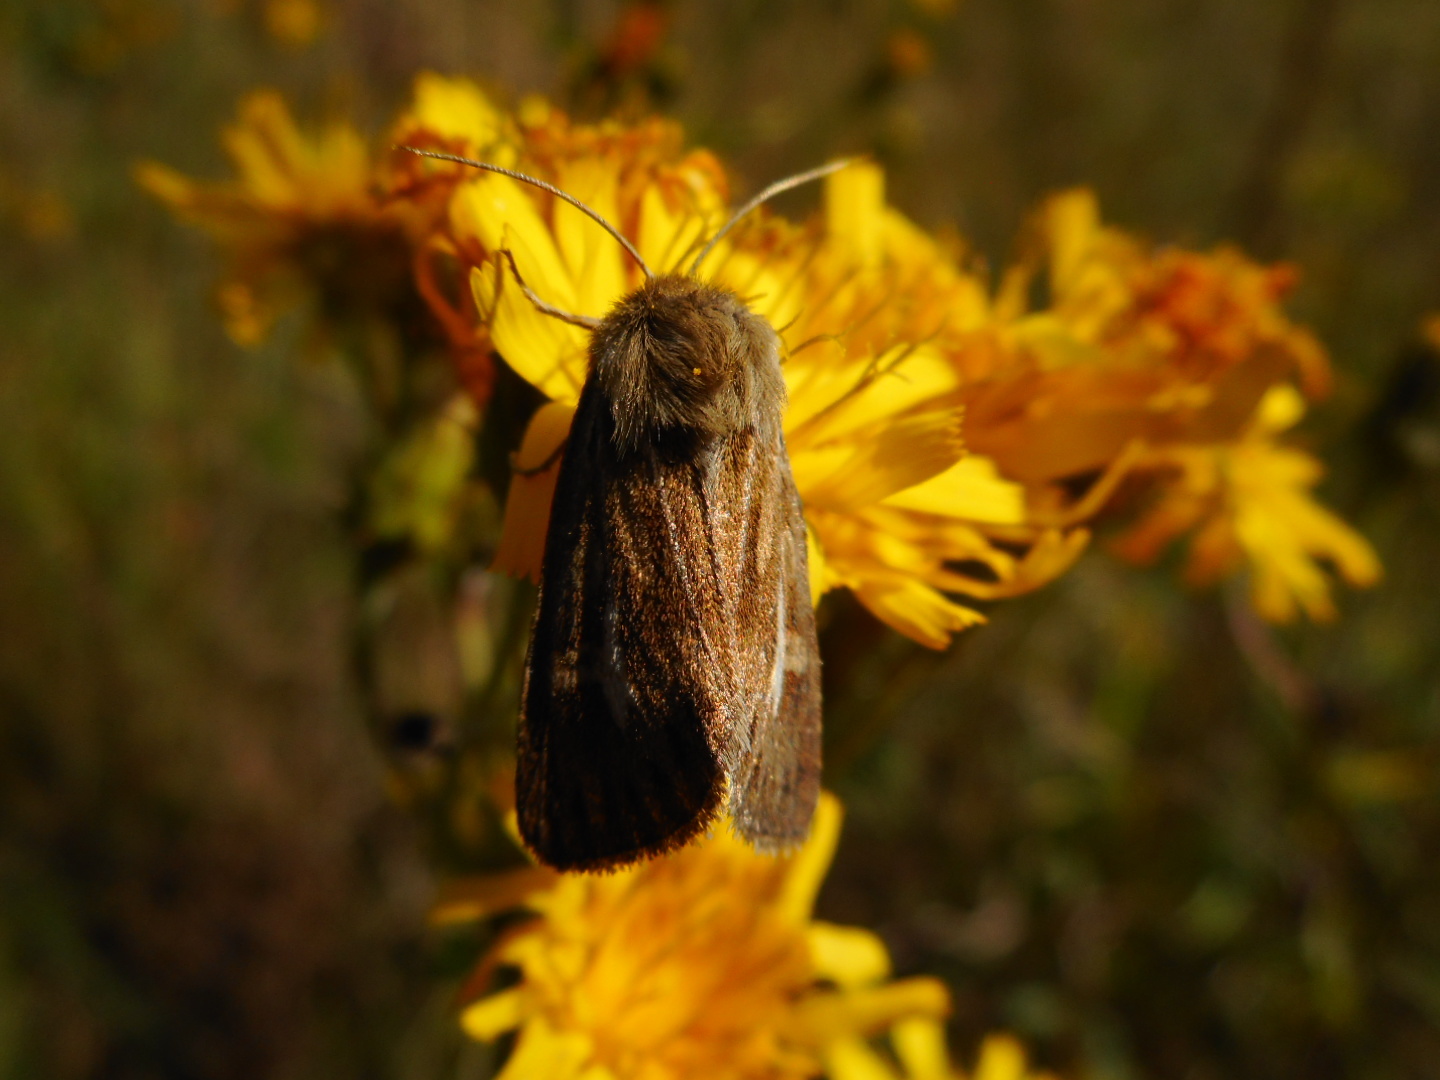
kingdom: Animalia
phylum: Arthropoda
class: Insecta
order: Lepidoptera
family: Noctuidae
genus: Cerapteryx
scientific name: Cerapteryx graminis
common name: Antler moth
